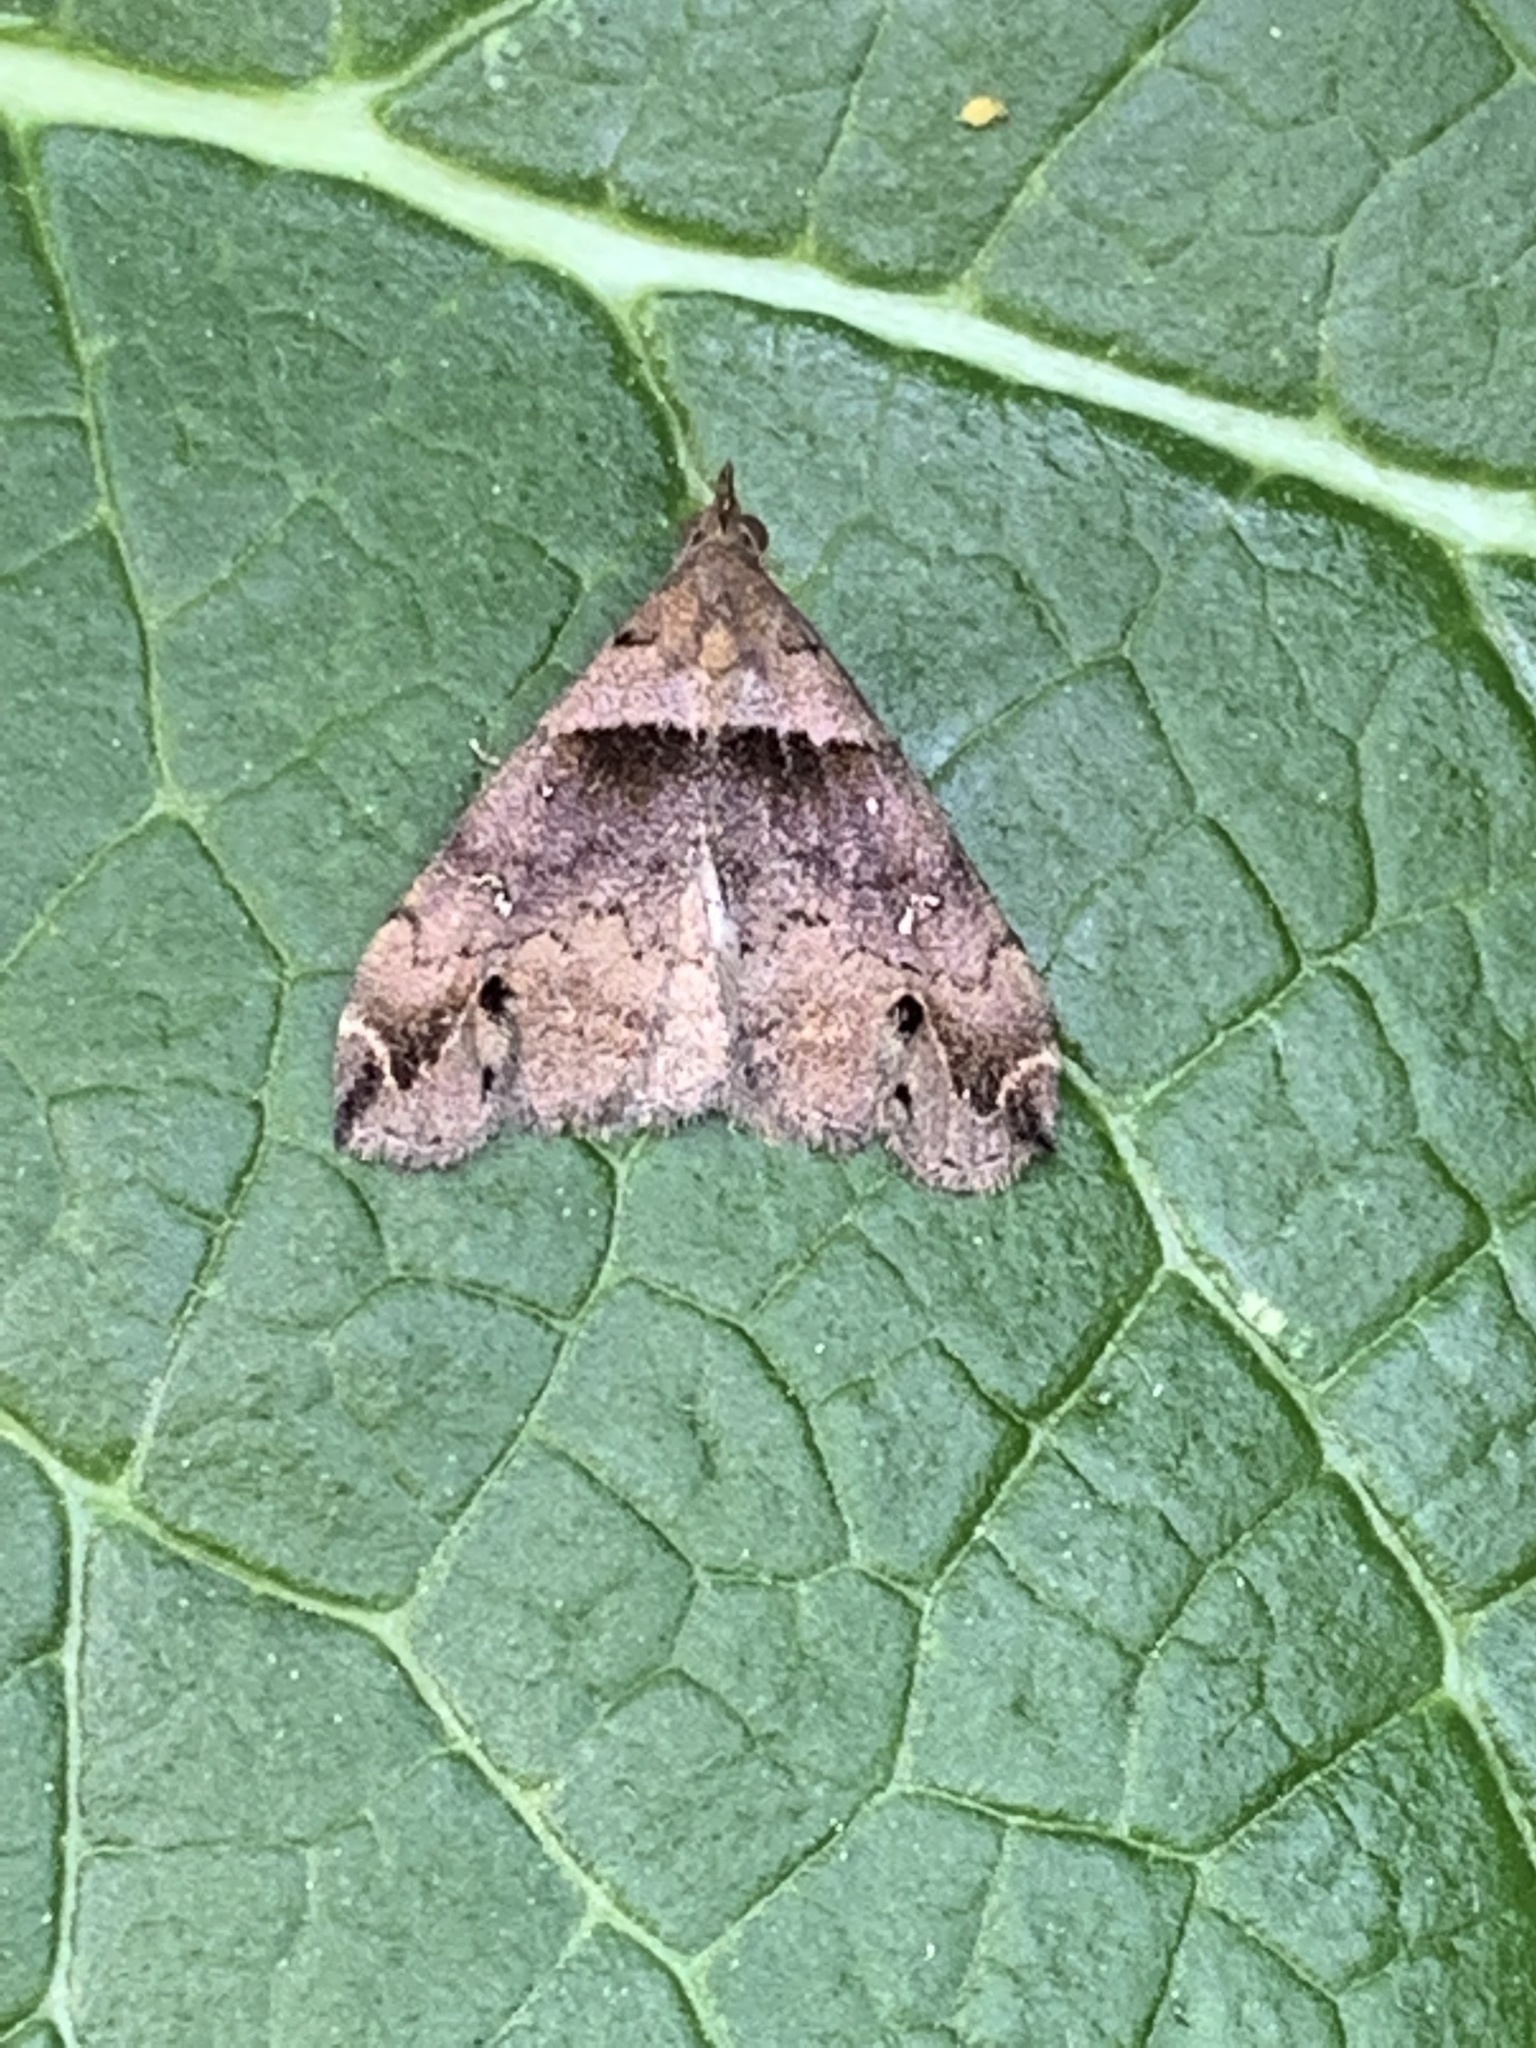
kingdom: Animalia
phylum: Arthropoda
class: Insecta
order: Lepidoptera
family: Erebidae
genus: Lascoria
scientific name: Lascoria ambigualis
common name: Ambiguous moth
